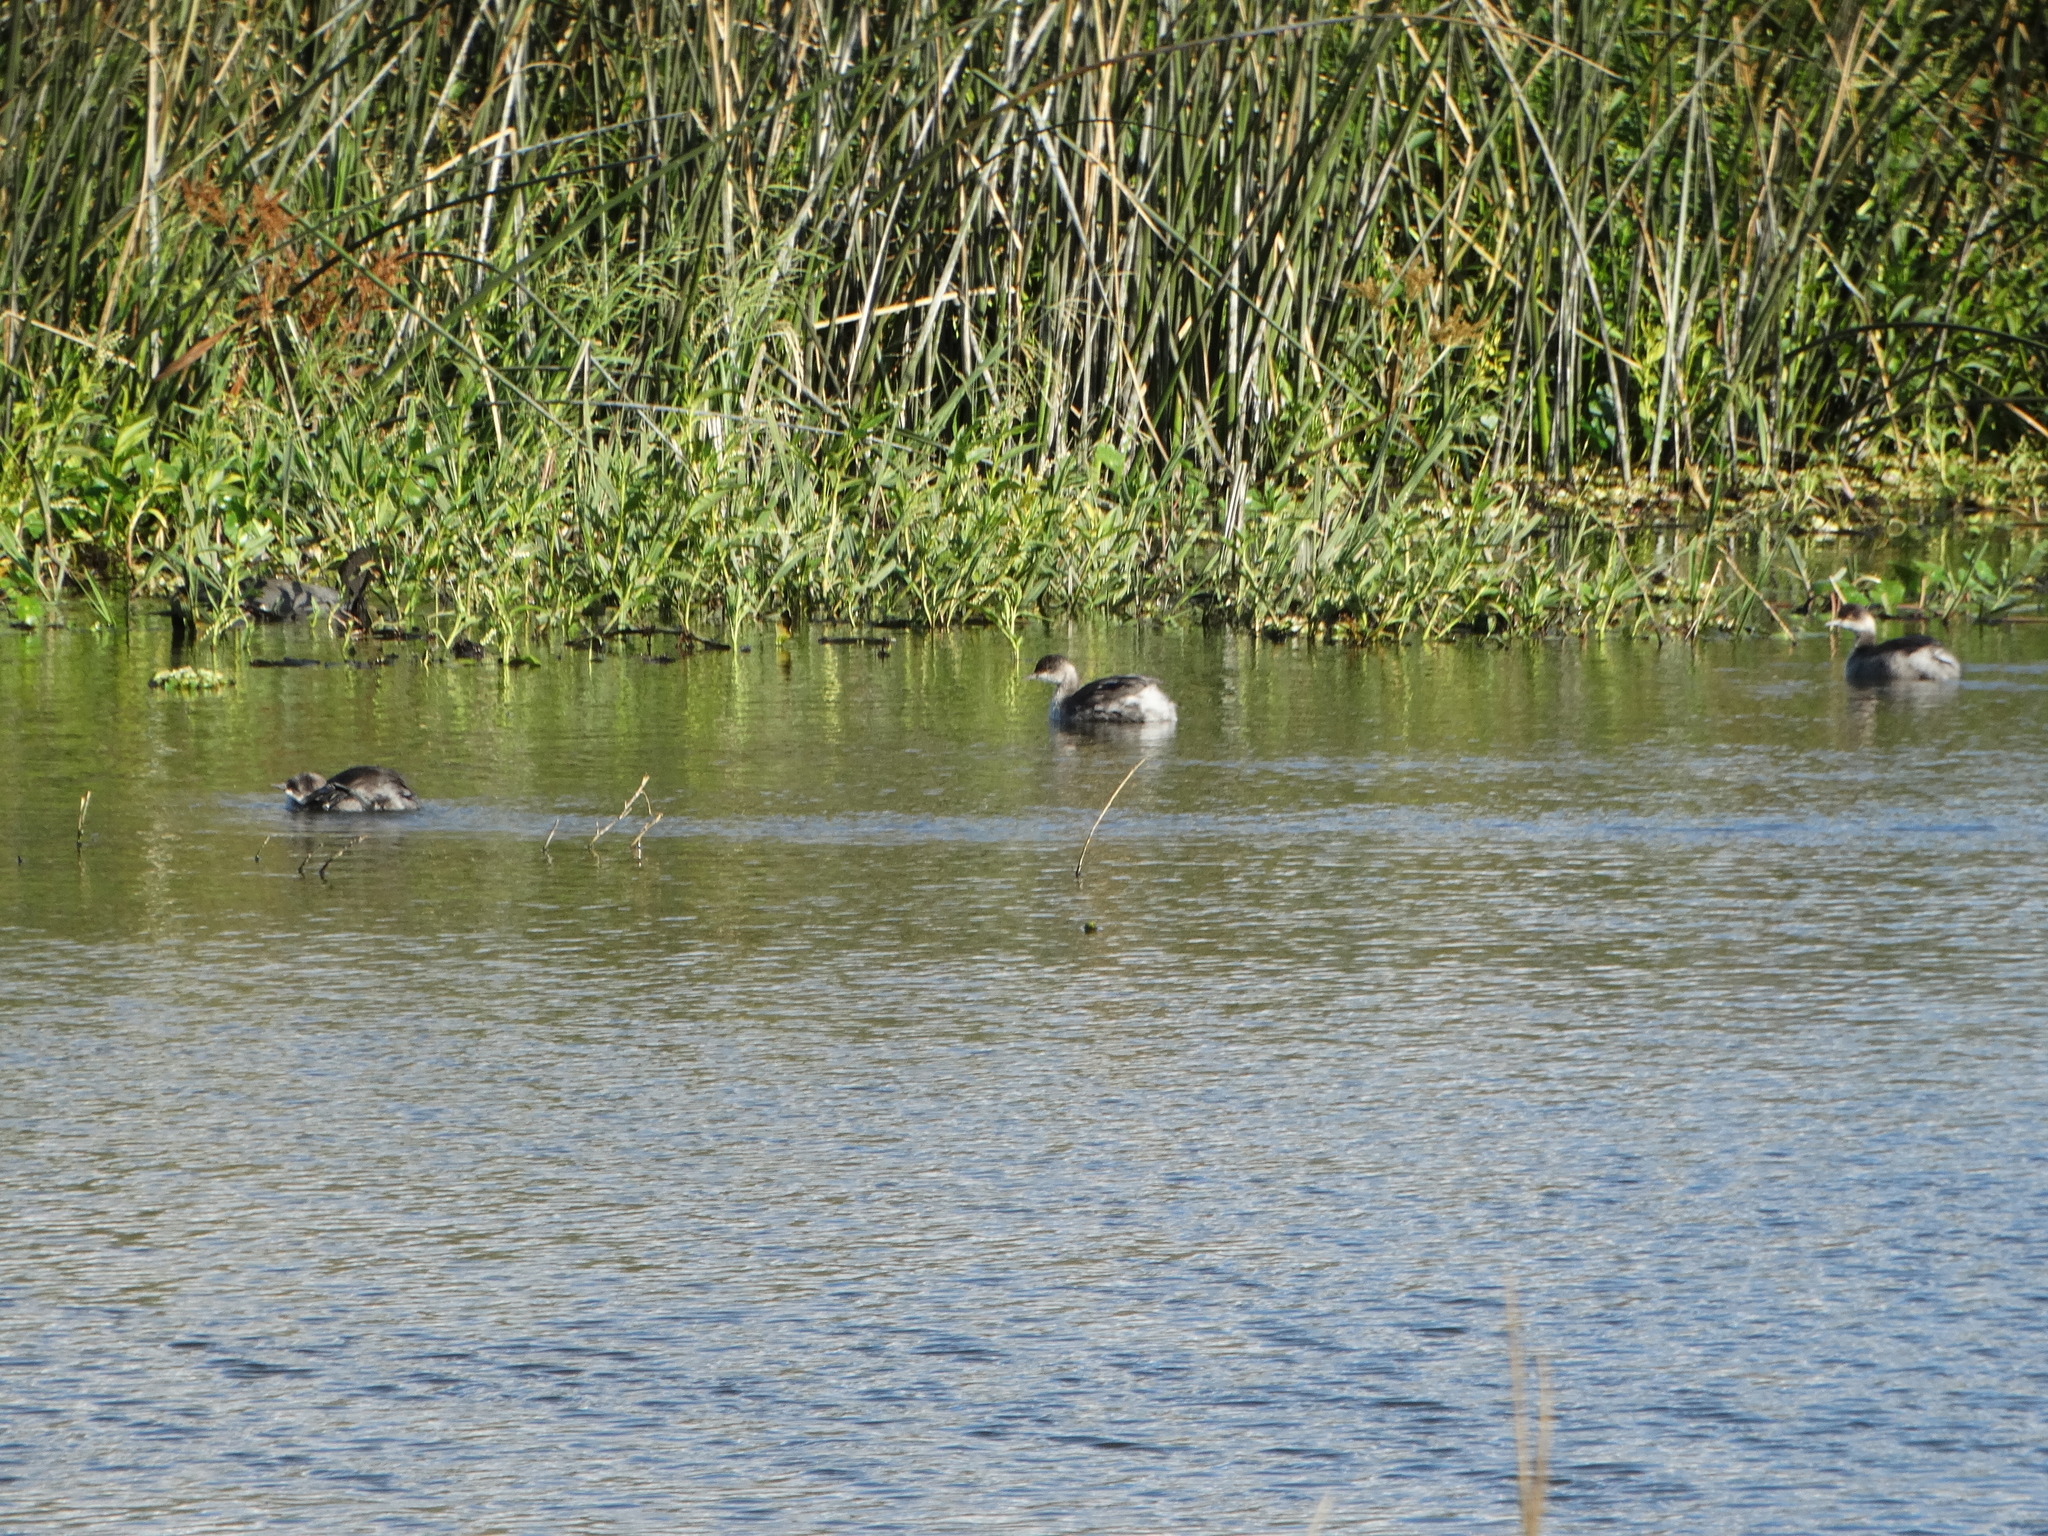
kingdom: Animalia
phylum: Chordata
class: Aves
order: Podicipediformes
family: Podicipedidae
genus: Podiceps
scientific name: Podiceps nigricollis
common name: Black-necked grebe
